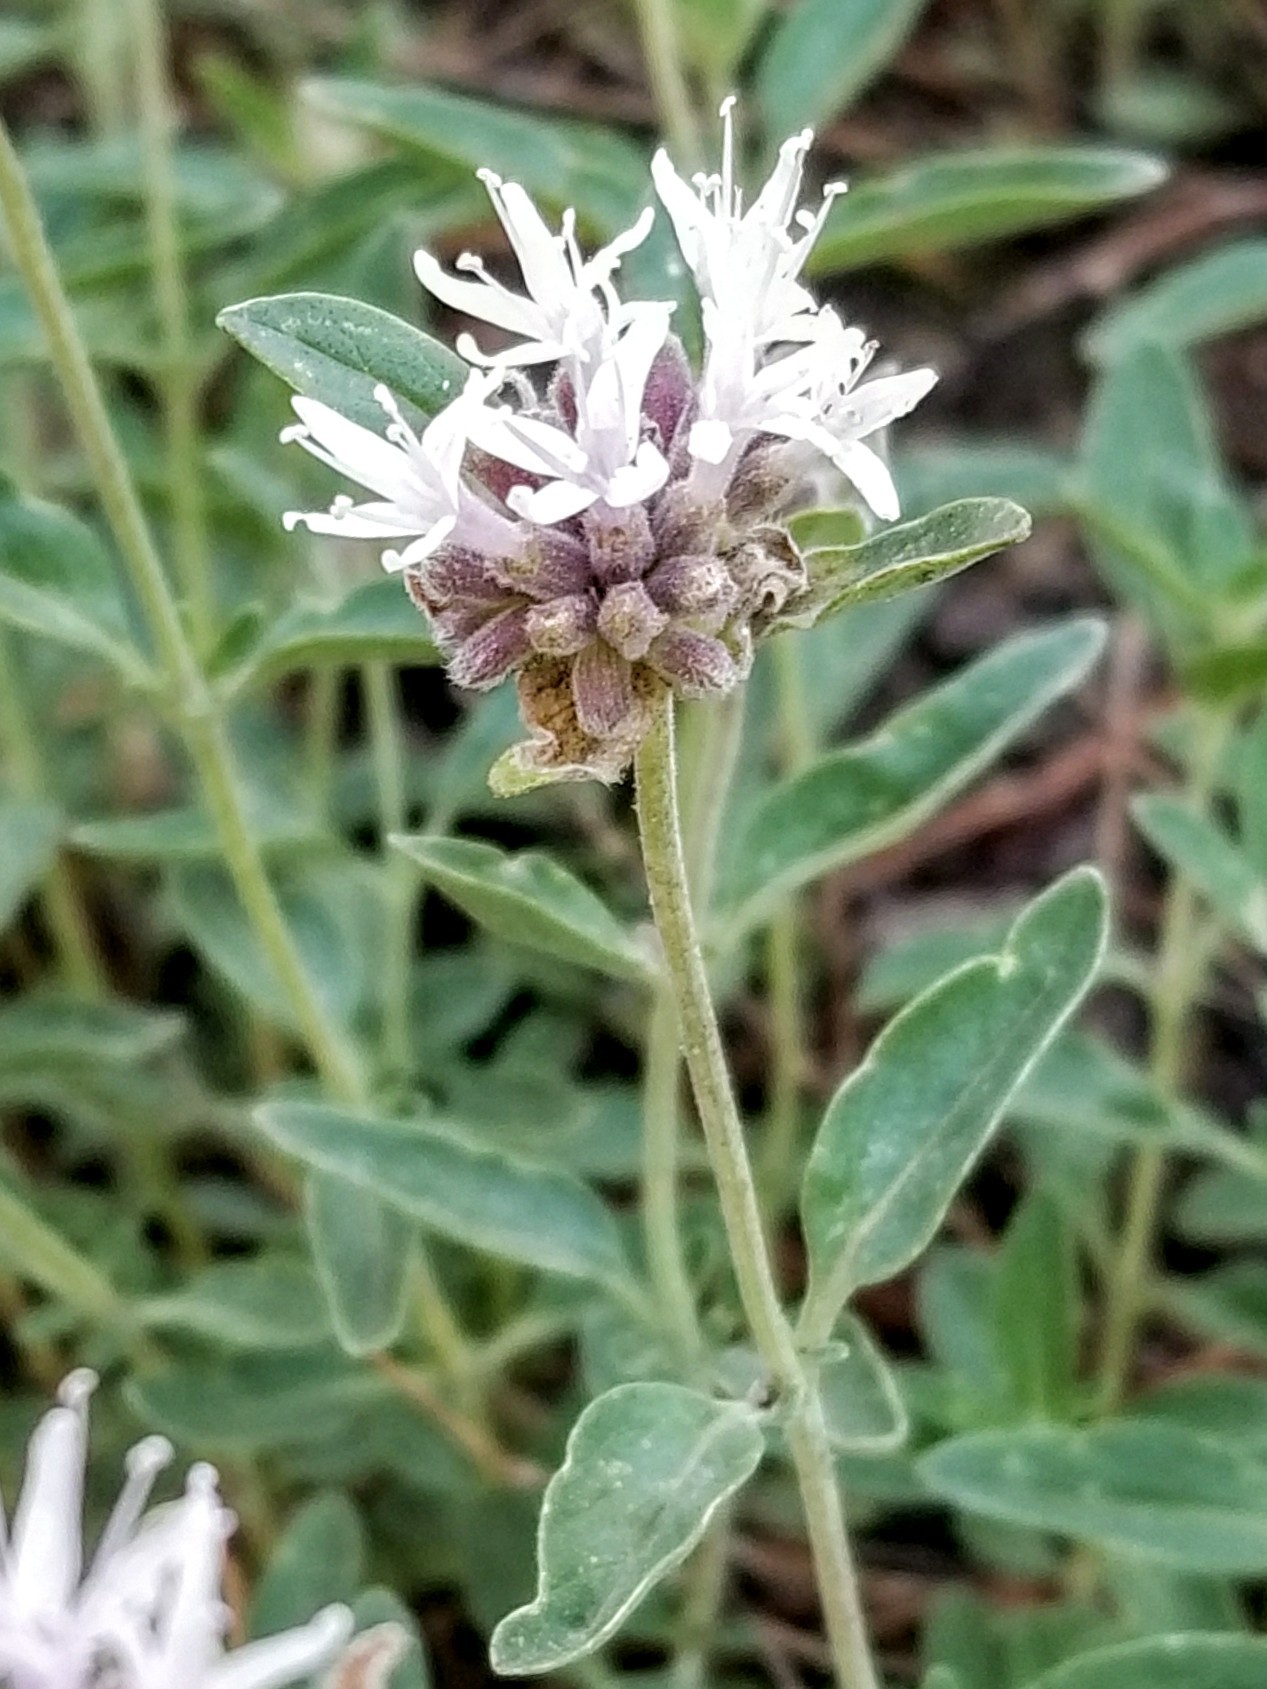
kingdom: Plantae
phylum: Tracheophyta
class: Magnoliopsida
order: Lamiales
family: Lamiaceae
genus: Monardella
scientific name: Monardella odoratissima
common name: Pacific monardella
